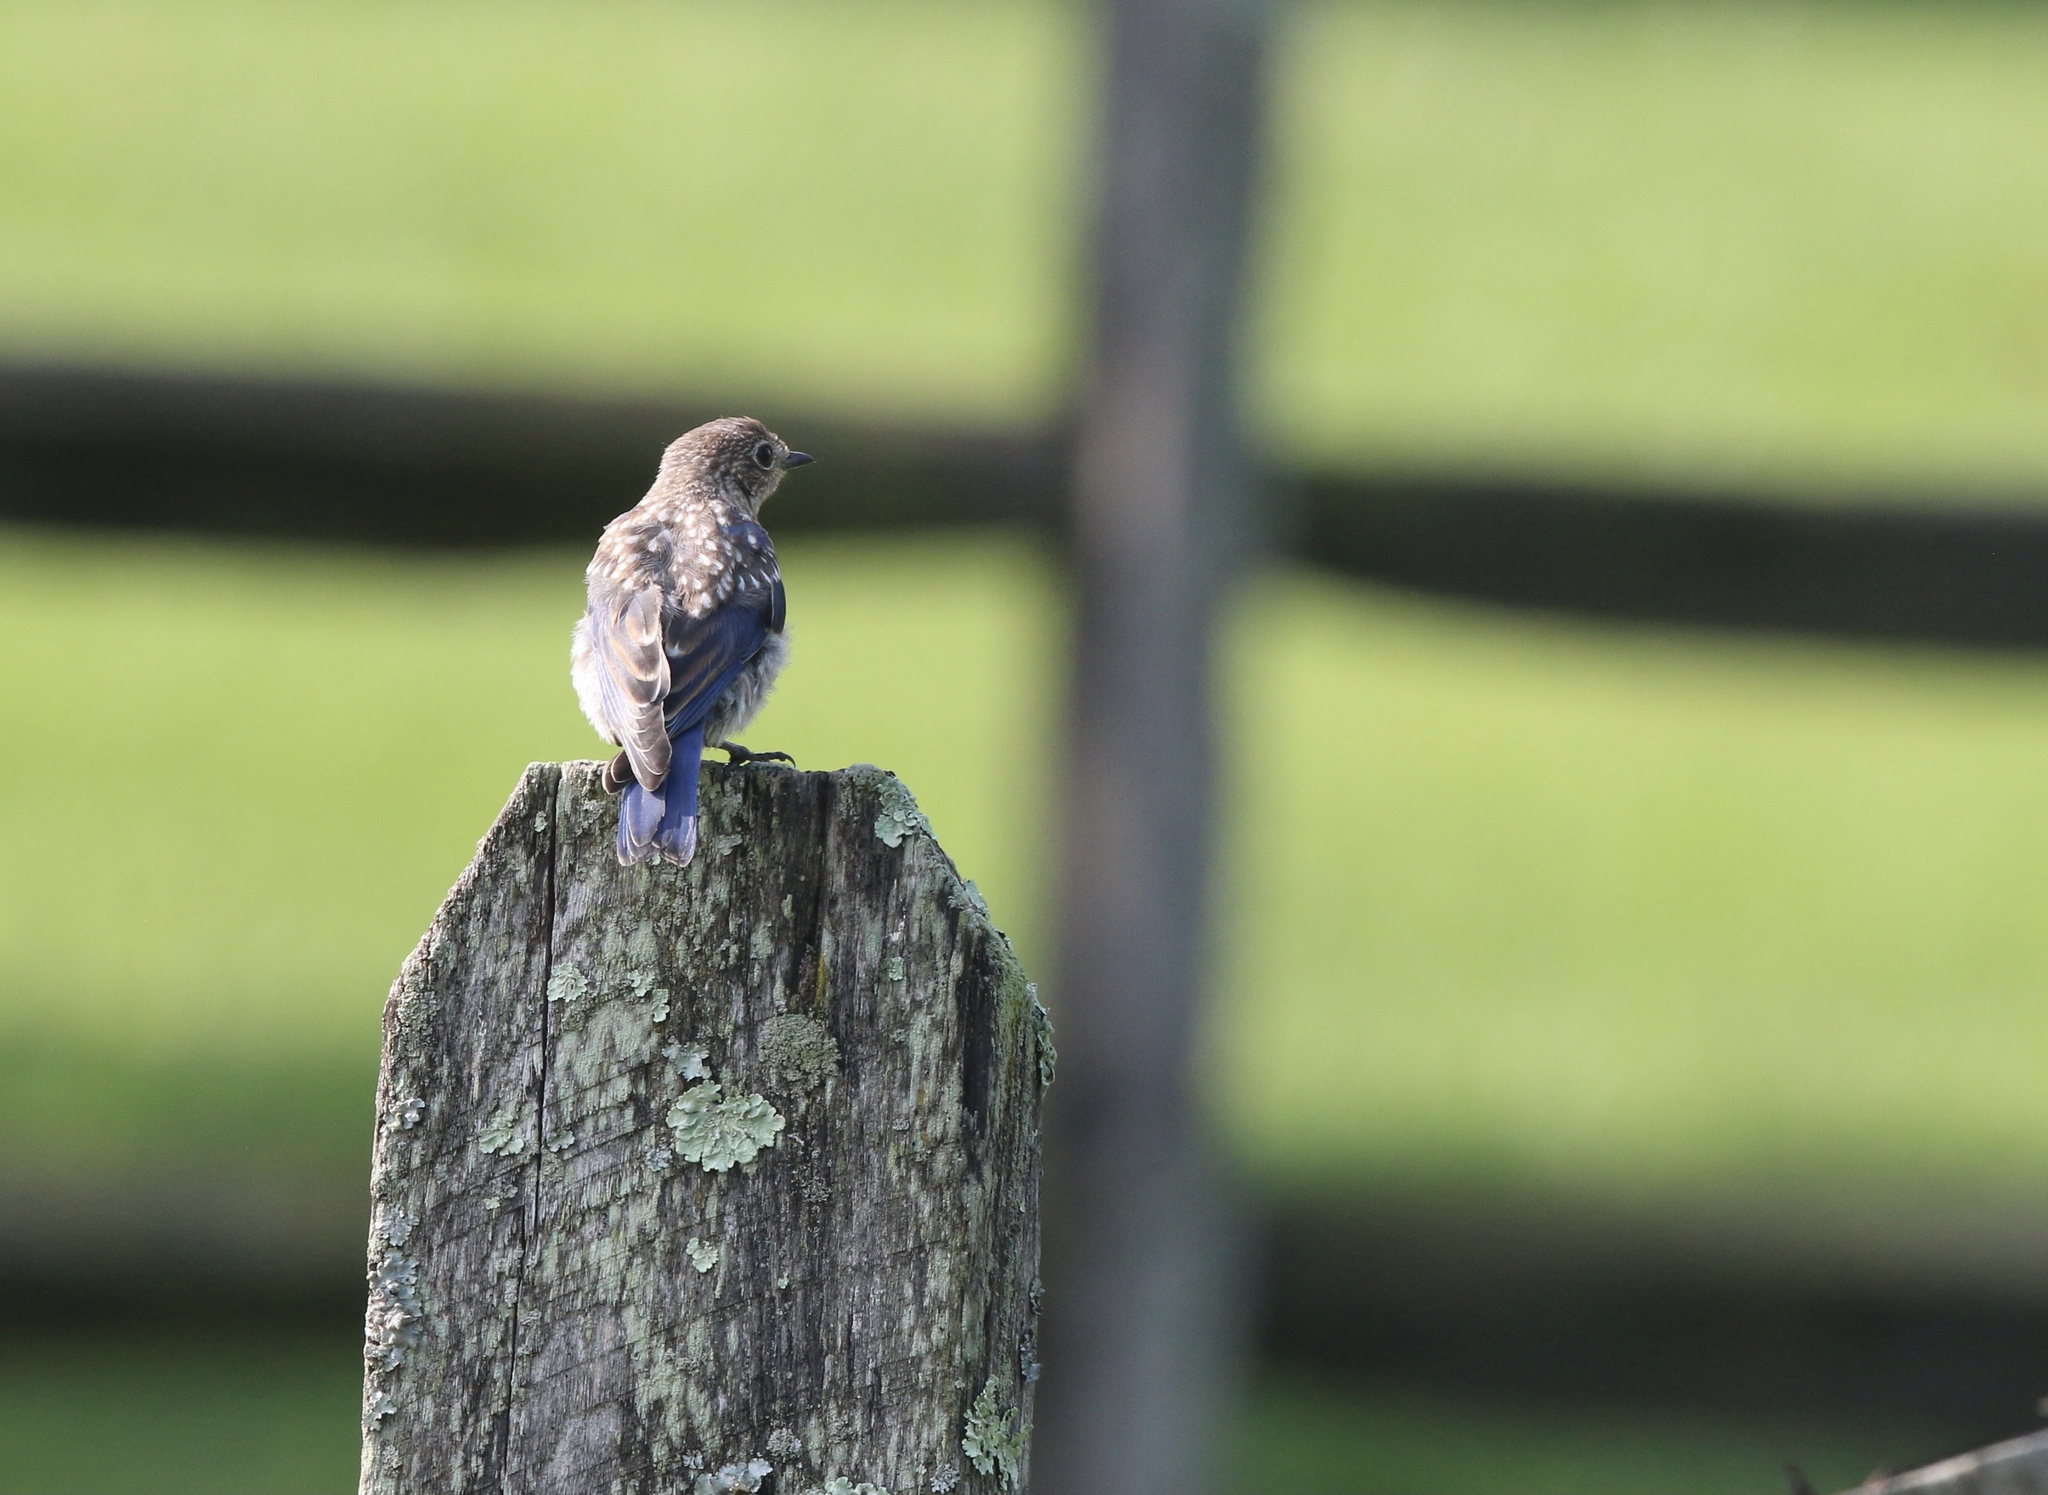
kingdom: Animalia
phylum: Chordata
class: Aves
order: Passeriformes
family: Turdidae
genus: Sialia
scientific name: Sialia sialis
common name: Eastern bluebird
